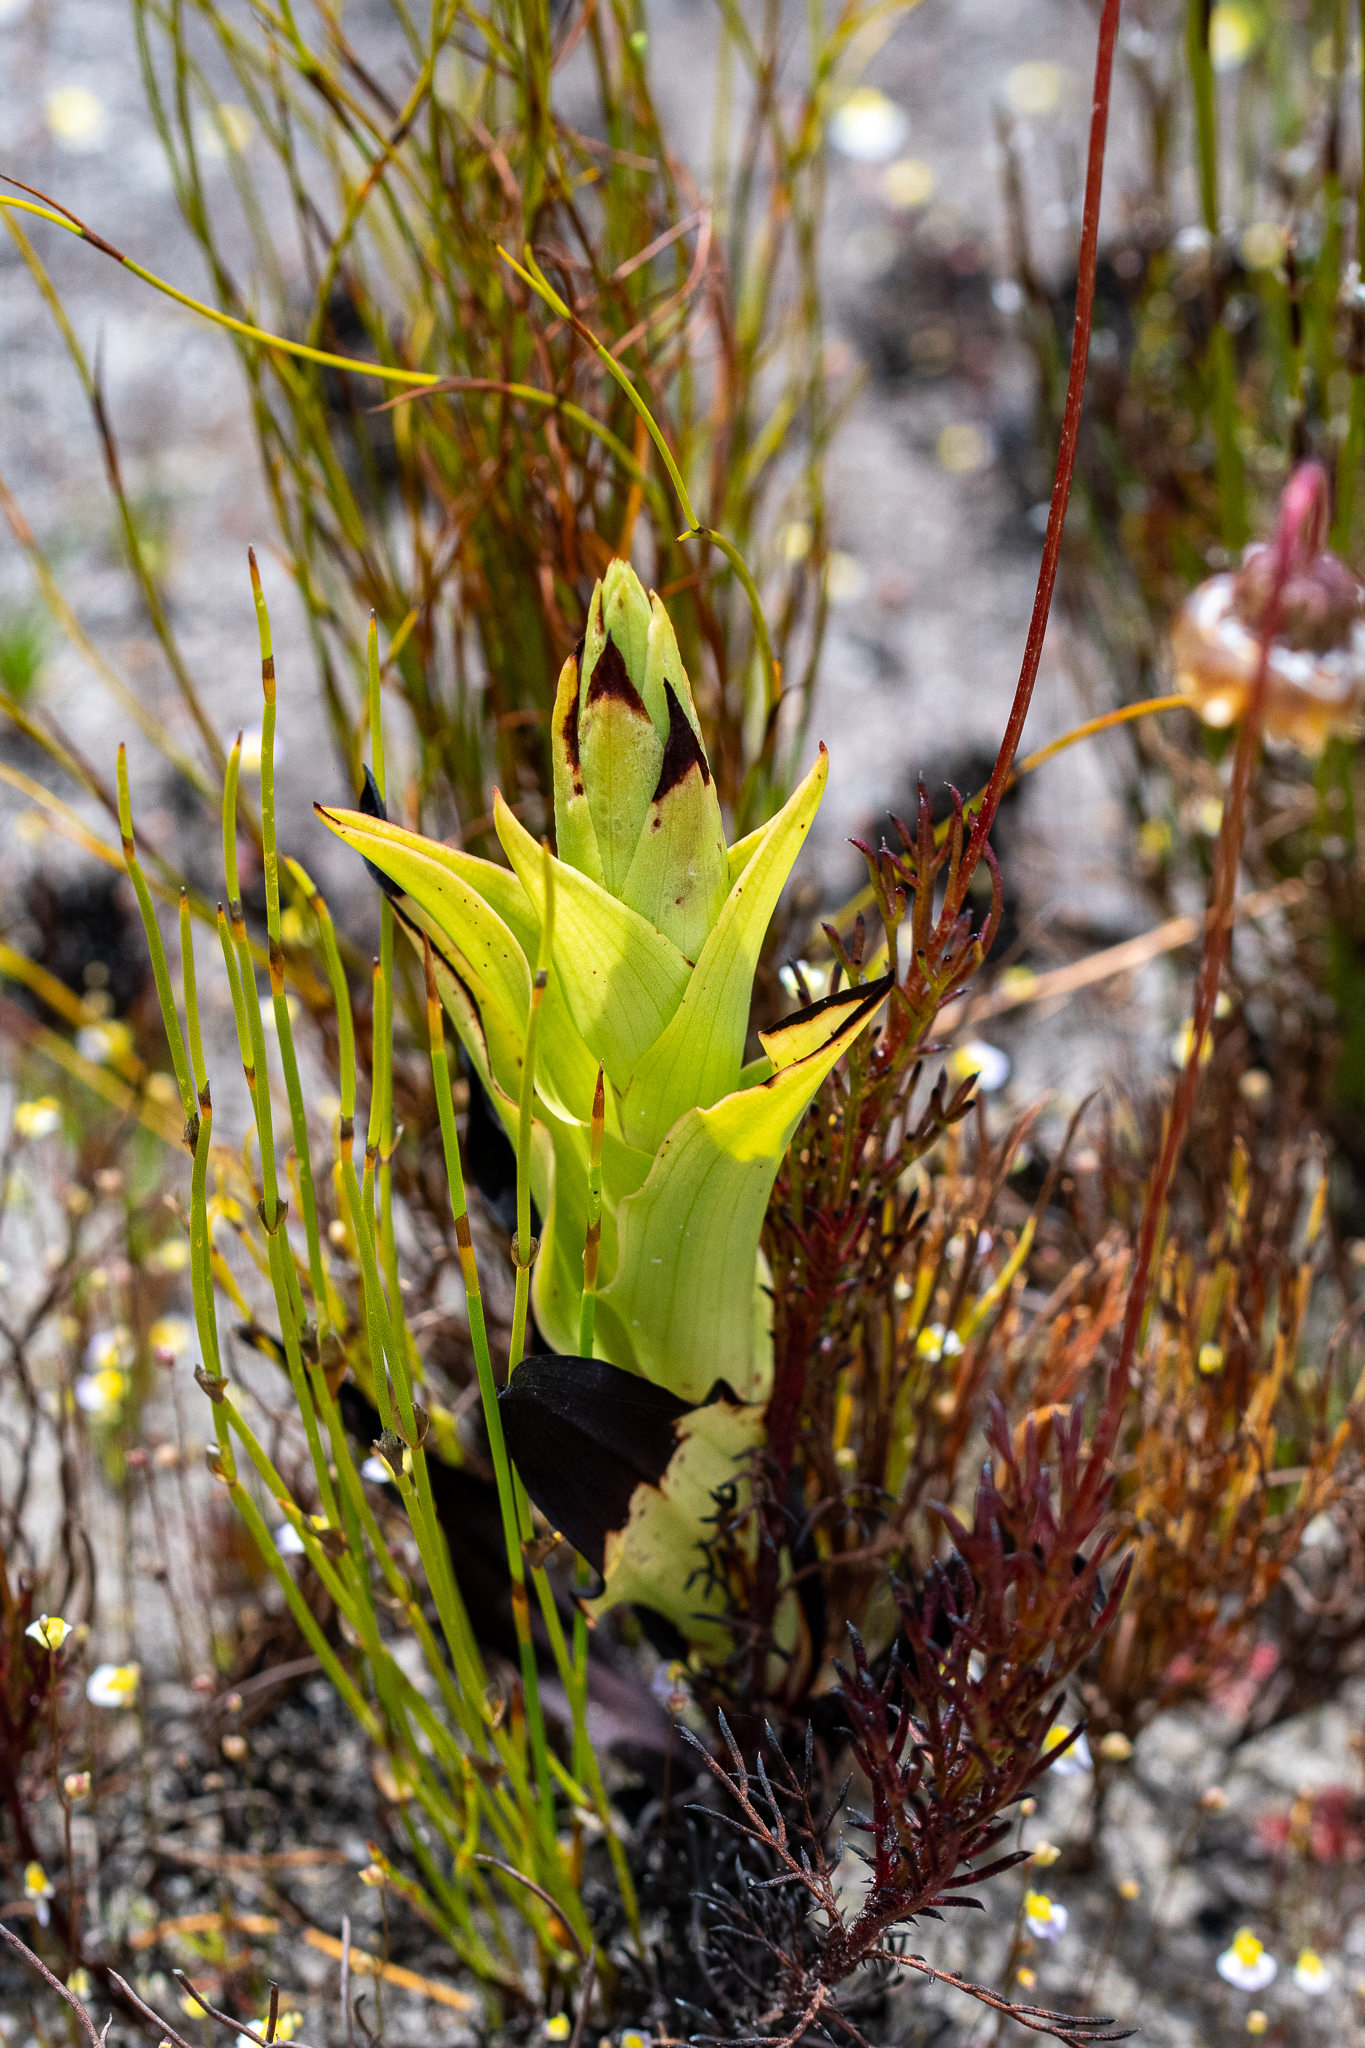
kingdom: Plantae
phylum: Tracheophyta
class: Liliopsida
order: Asparagales
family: Orchidaceae
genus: Disa
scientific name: Disa cornuta
